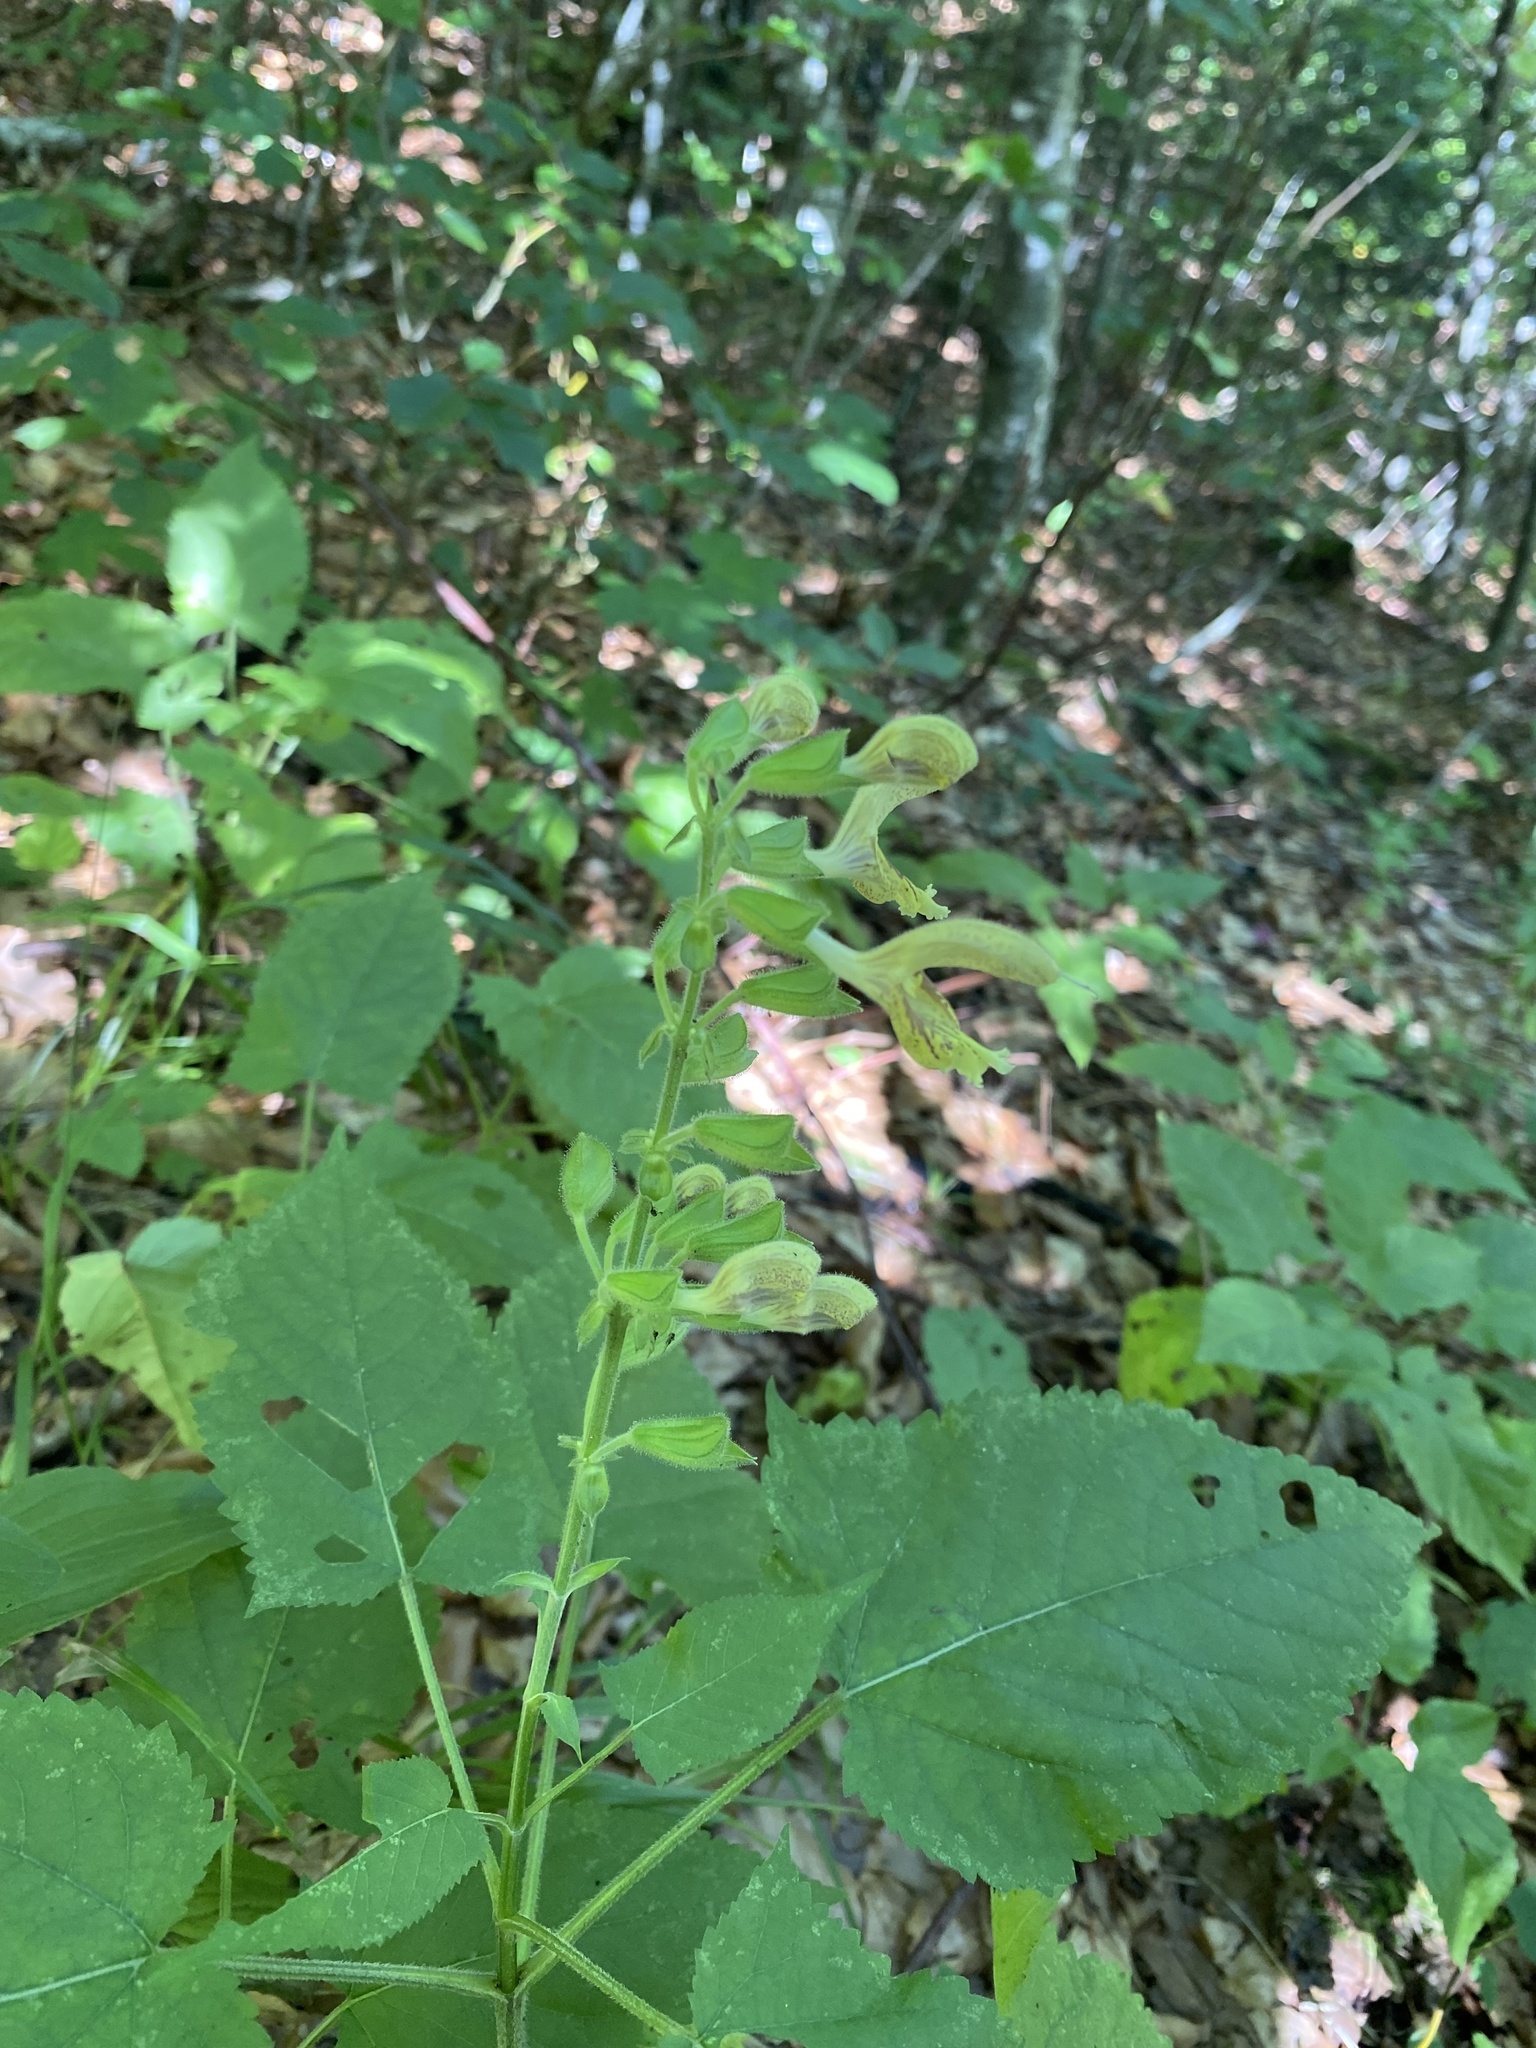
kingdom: Plantae
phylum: Tracheophyta
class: Magnoliopsida
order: Lamiales
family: Lamiaceae
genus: Salvia
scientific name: Salvia glutinosa
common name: Sticky clary
